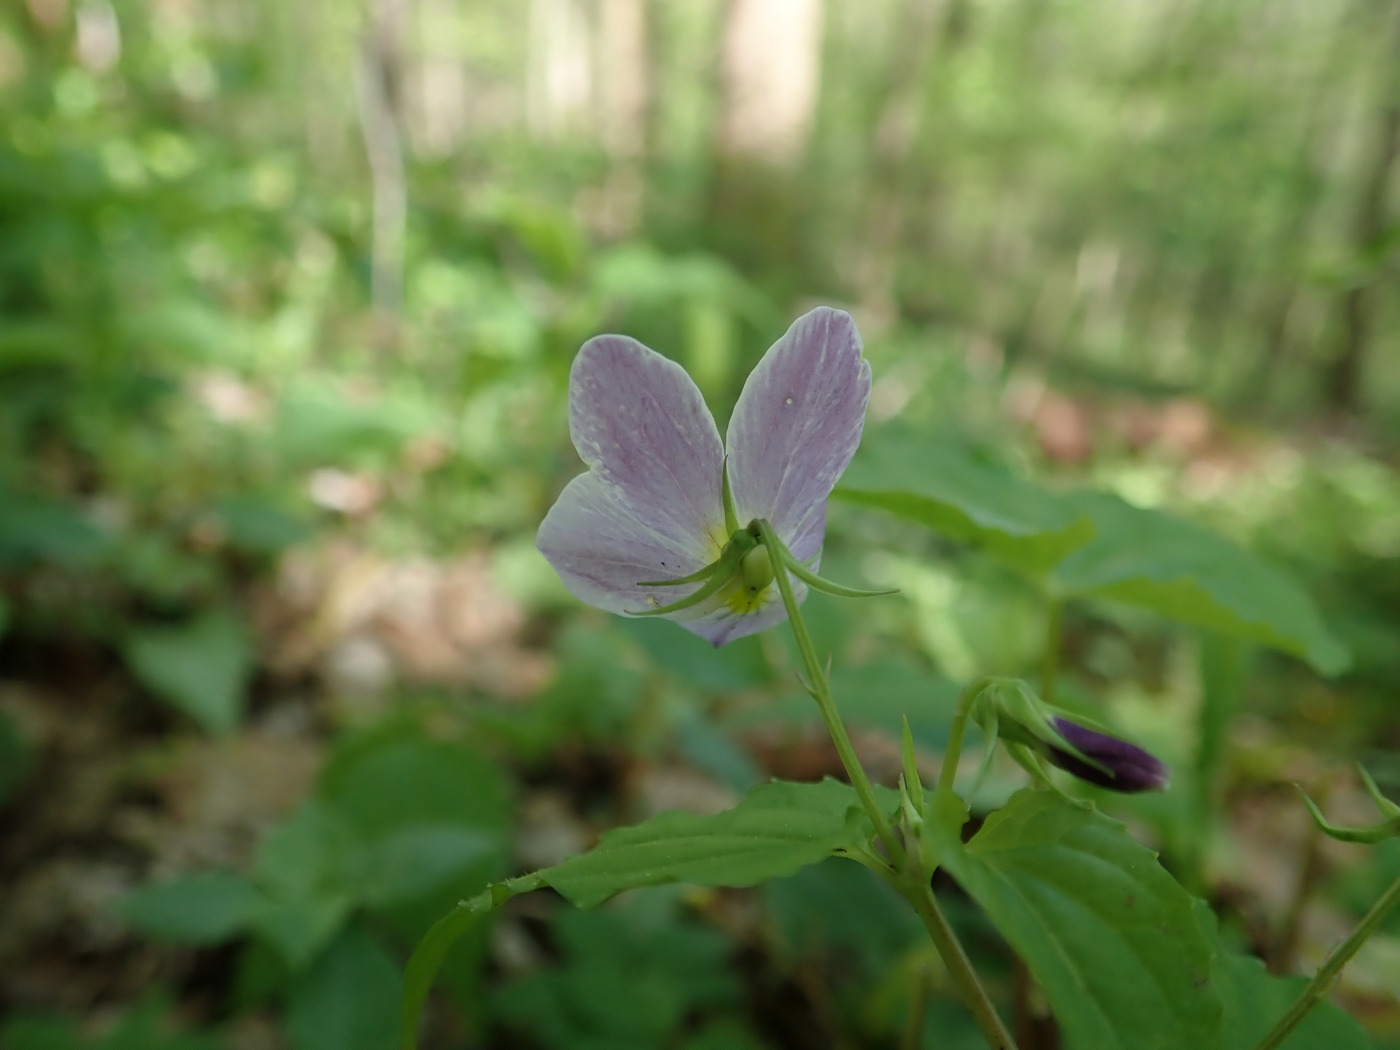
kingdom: Plantae
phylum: Tracheophyta
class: Magnoliopsida
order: Malpighiales
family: Violaceae
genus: Viola
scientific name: Viola canadensis
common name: Canada violet
